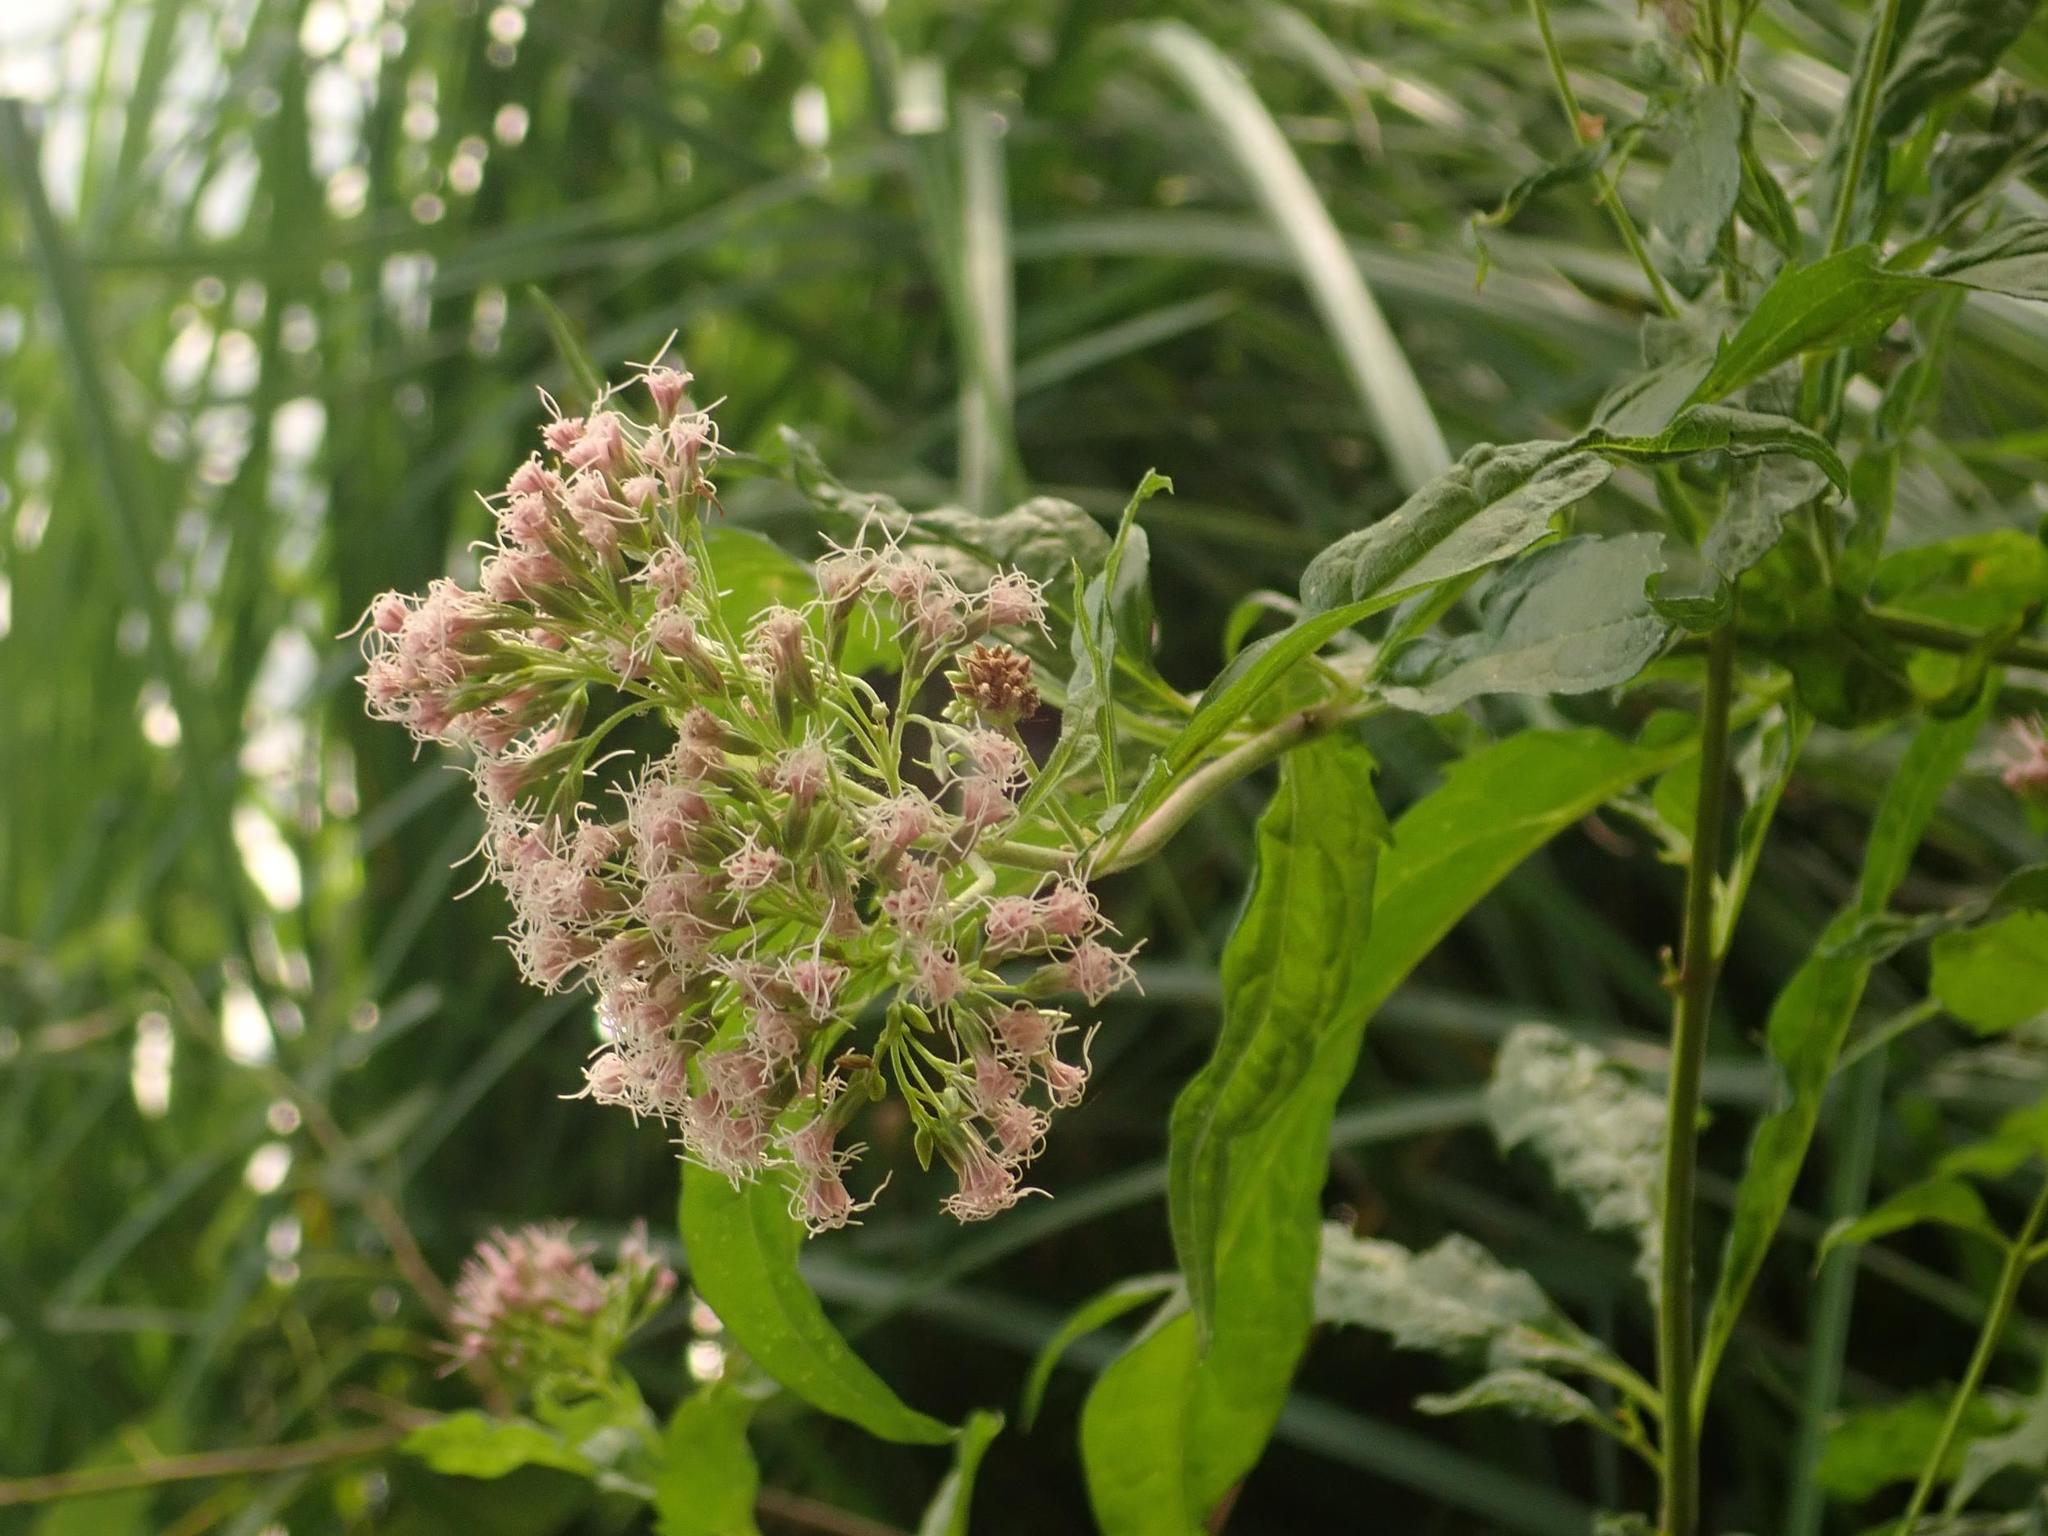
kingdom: Plantae
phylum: Tracheophyta
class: Magnoliopsida
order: Asterales
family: Asteraceae
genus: Eupatorium
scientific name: Eupatorium cannabinum
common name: Hemp-agrimony
